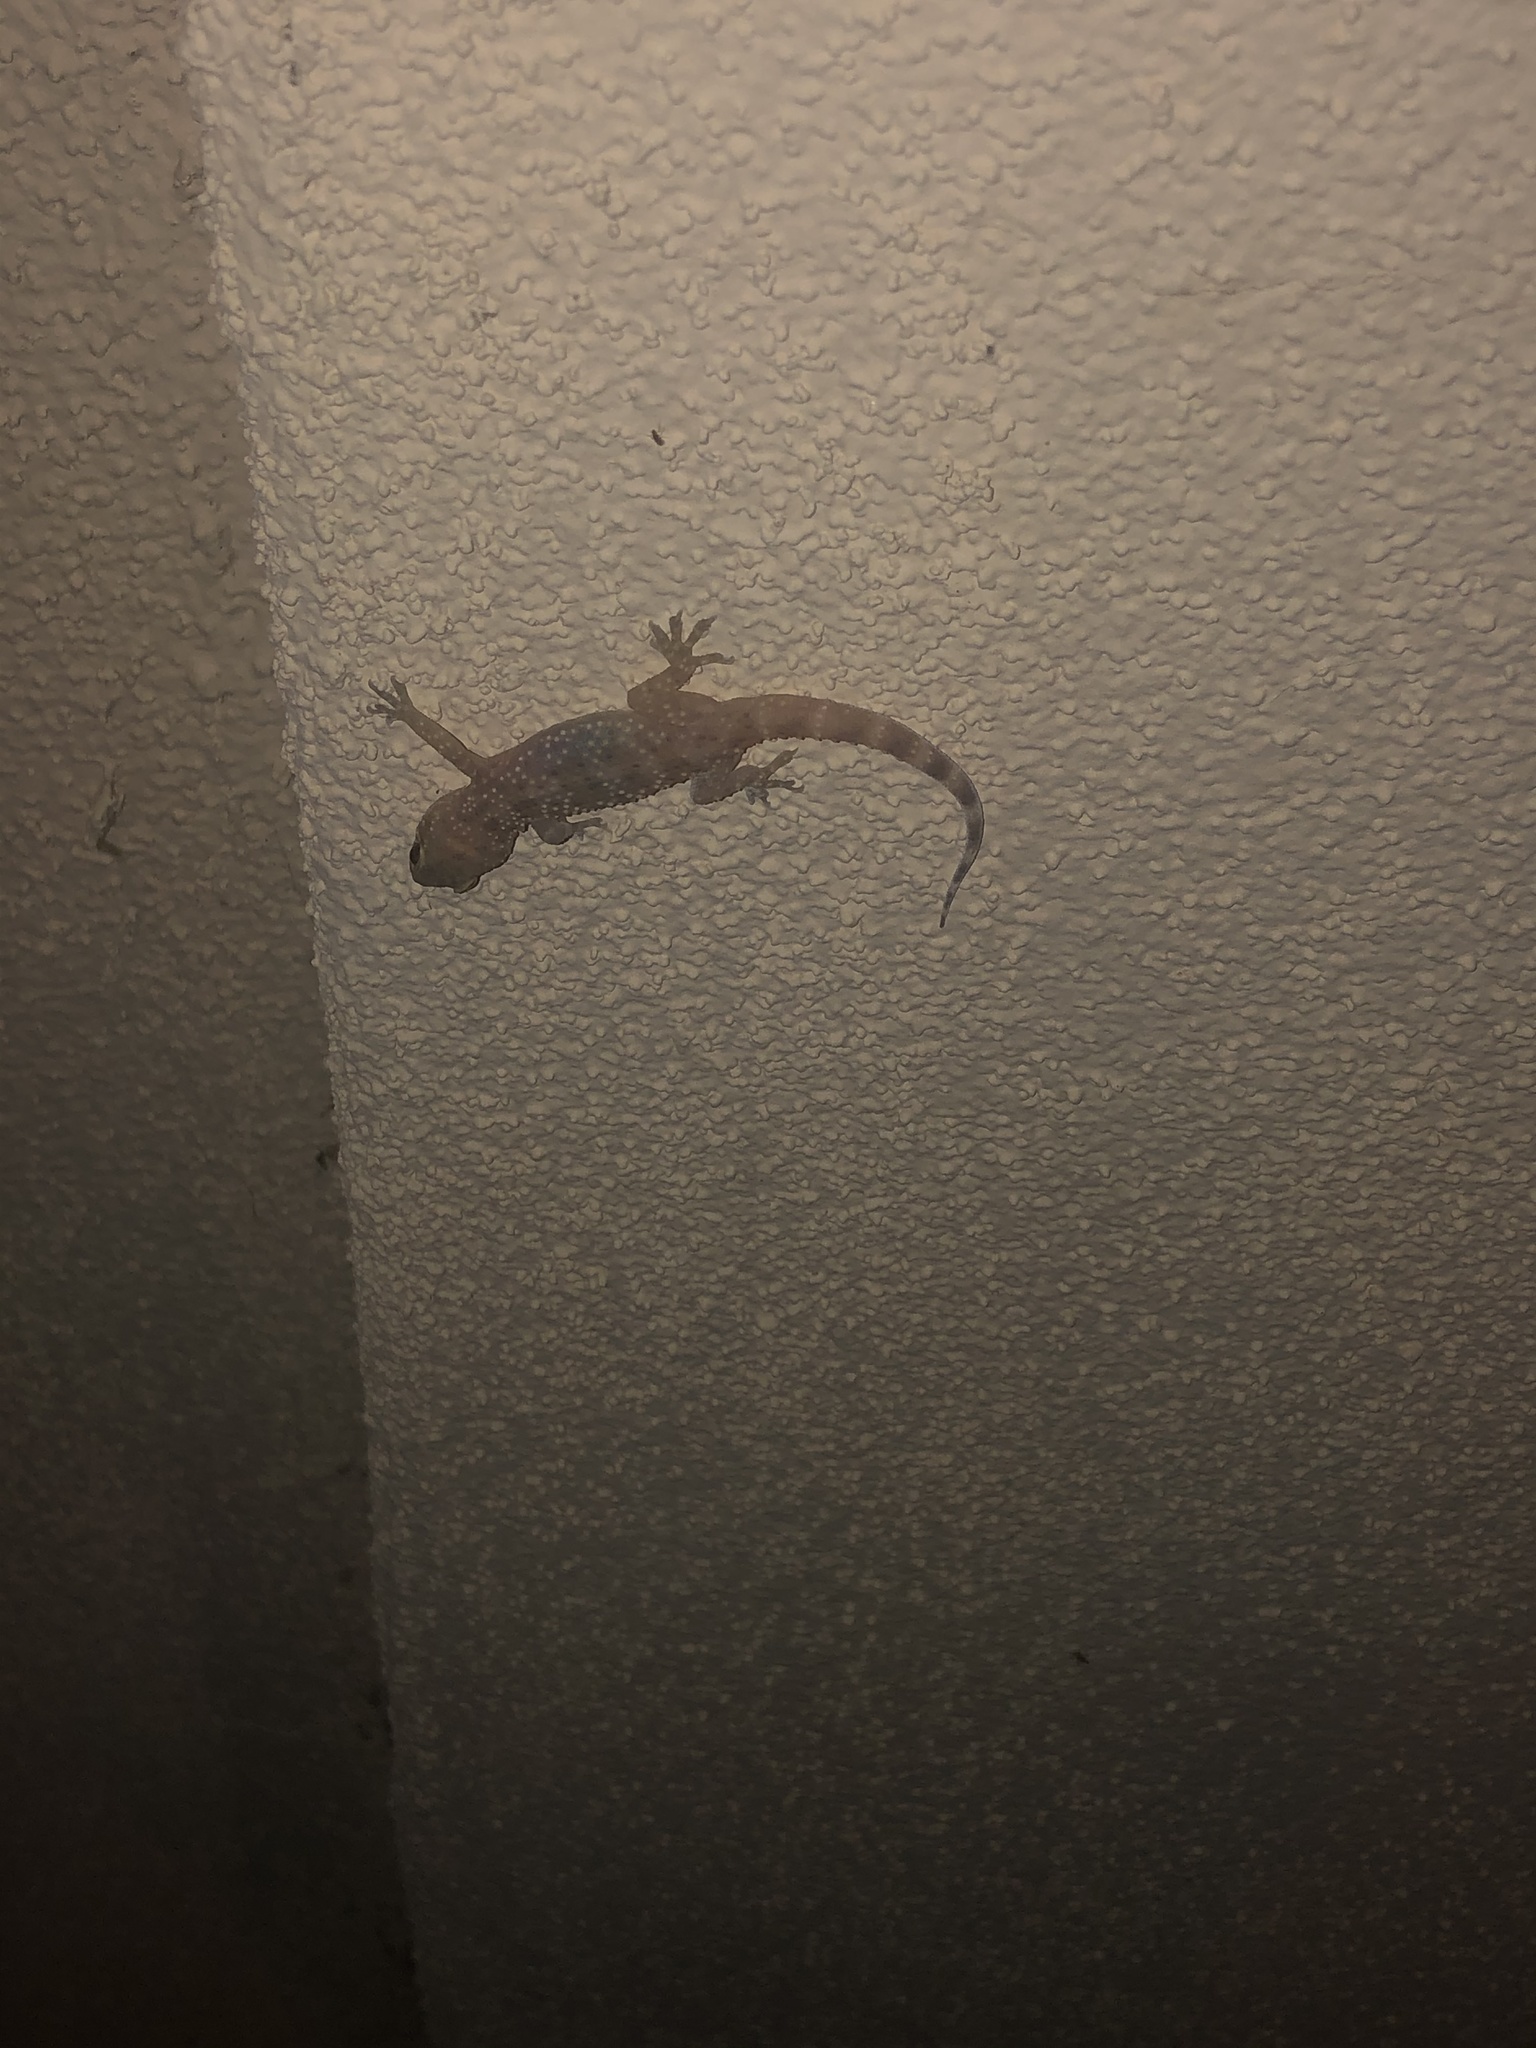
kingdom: Animalia
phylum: Chordata
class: Squamata
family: Gekkonidae
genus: Hemidactylus
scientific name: Hemidactylus turcicus
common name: Turkish gecko
